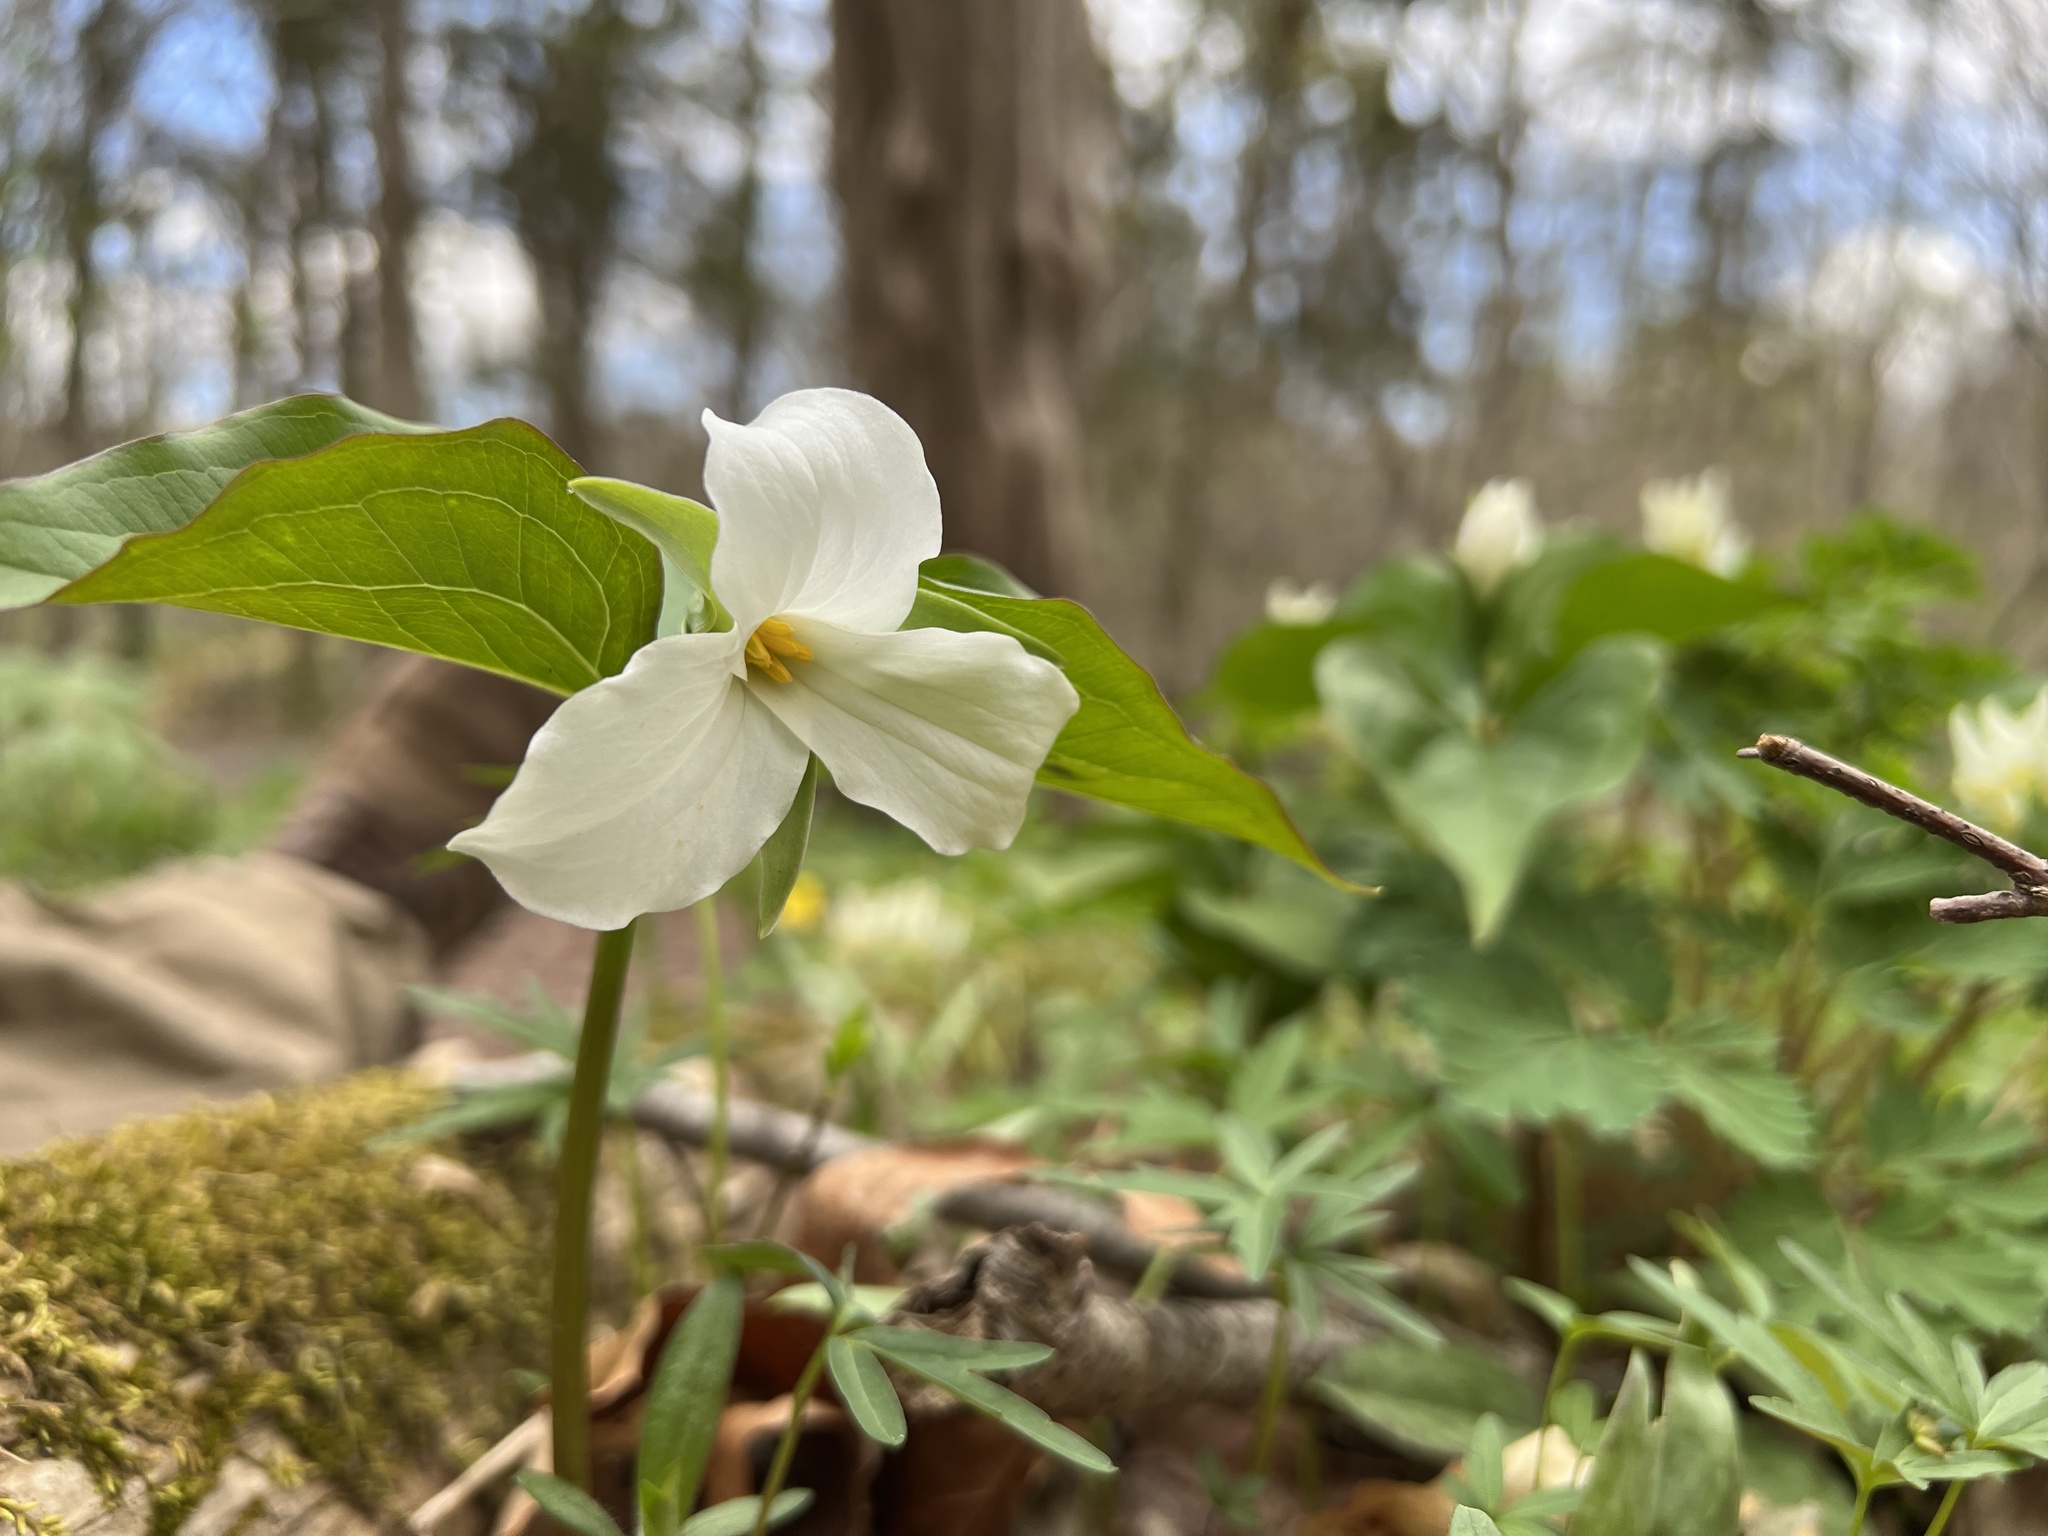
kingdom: Plantae
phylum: Tracheophyta
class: Liliopsida
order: Liliales
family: Melanthiaceae
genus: Trillium
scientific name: Trillium grandiflorum
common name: Great white trillium
